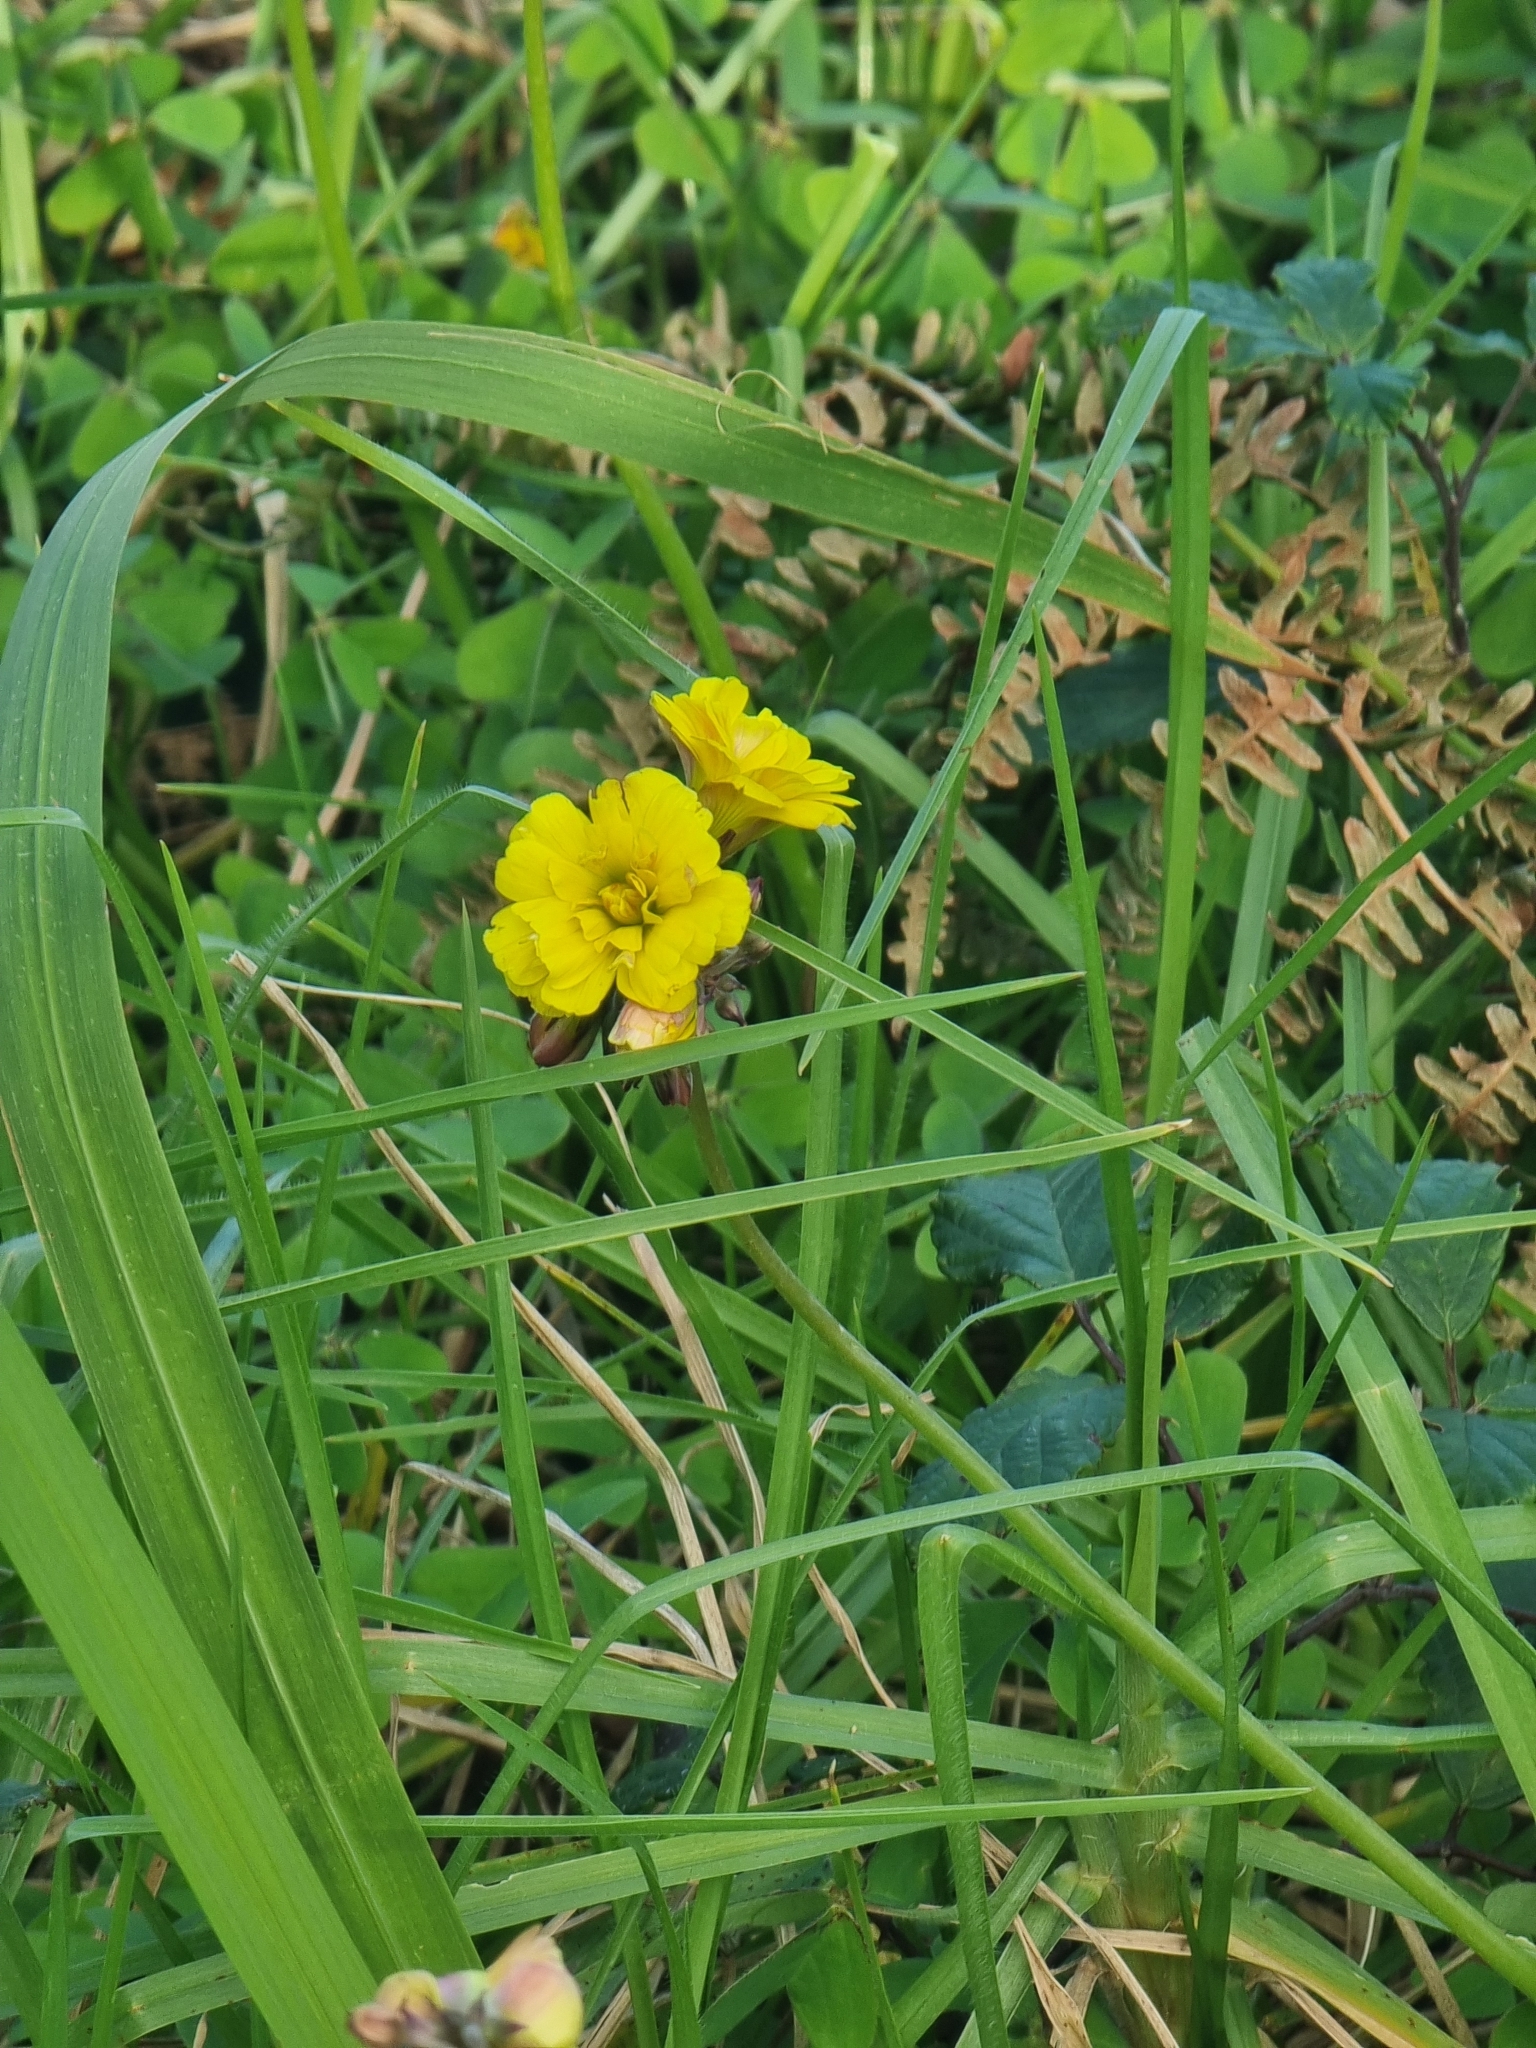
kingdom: Plantae
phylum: Tracheophyta
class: Magnoliopsida
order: Oxalidales
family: Oxalidaceae
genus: Oxalis
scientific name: Oxalis pes-caprae
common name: Bermuda-buttercup
